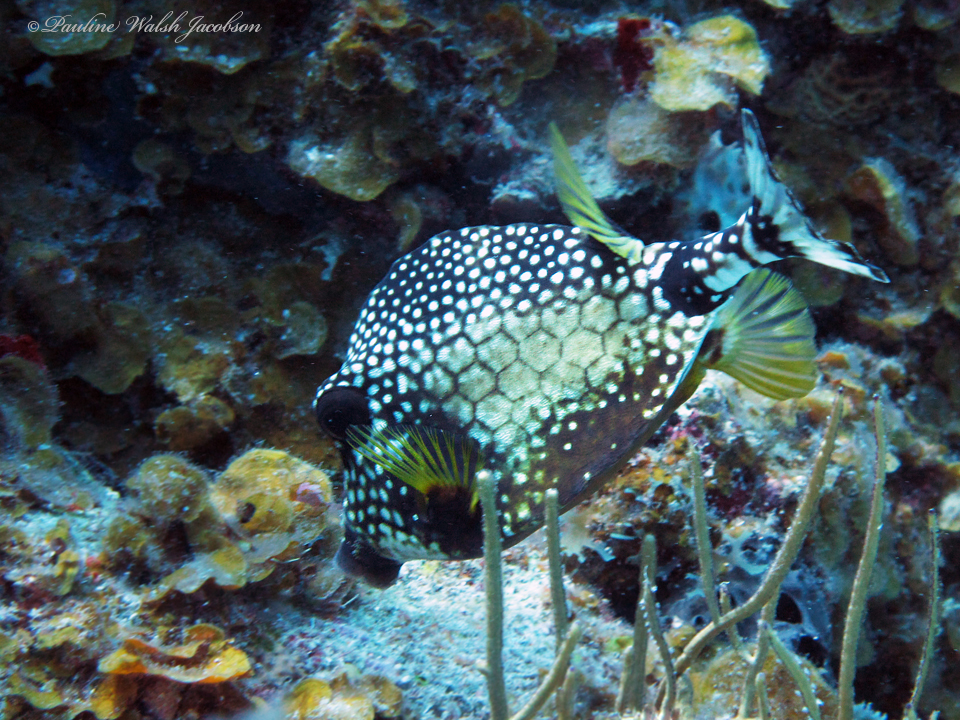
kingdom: Animalia
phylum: Chordata
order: Tetraodontiformes
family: Ostraciidae
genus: Lactophrys
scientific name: Lactophrys triqueter
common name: Smooth trunkfish
